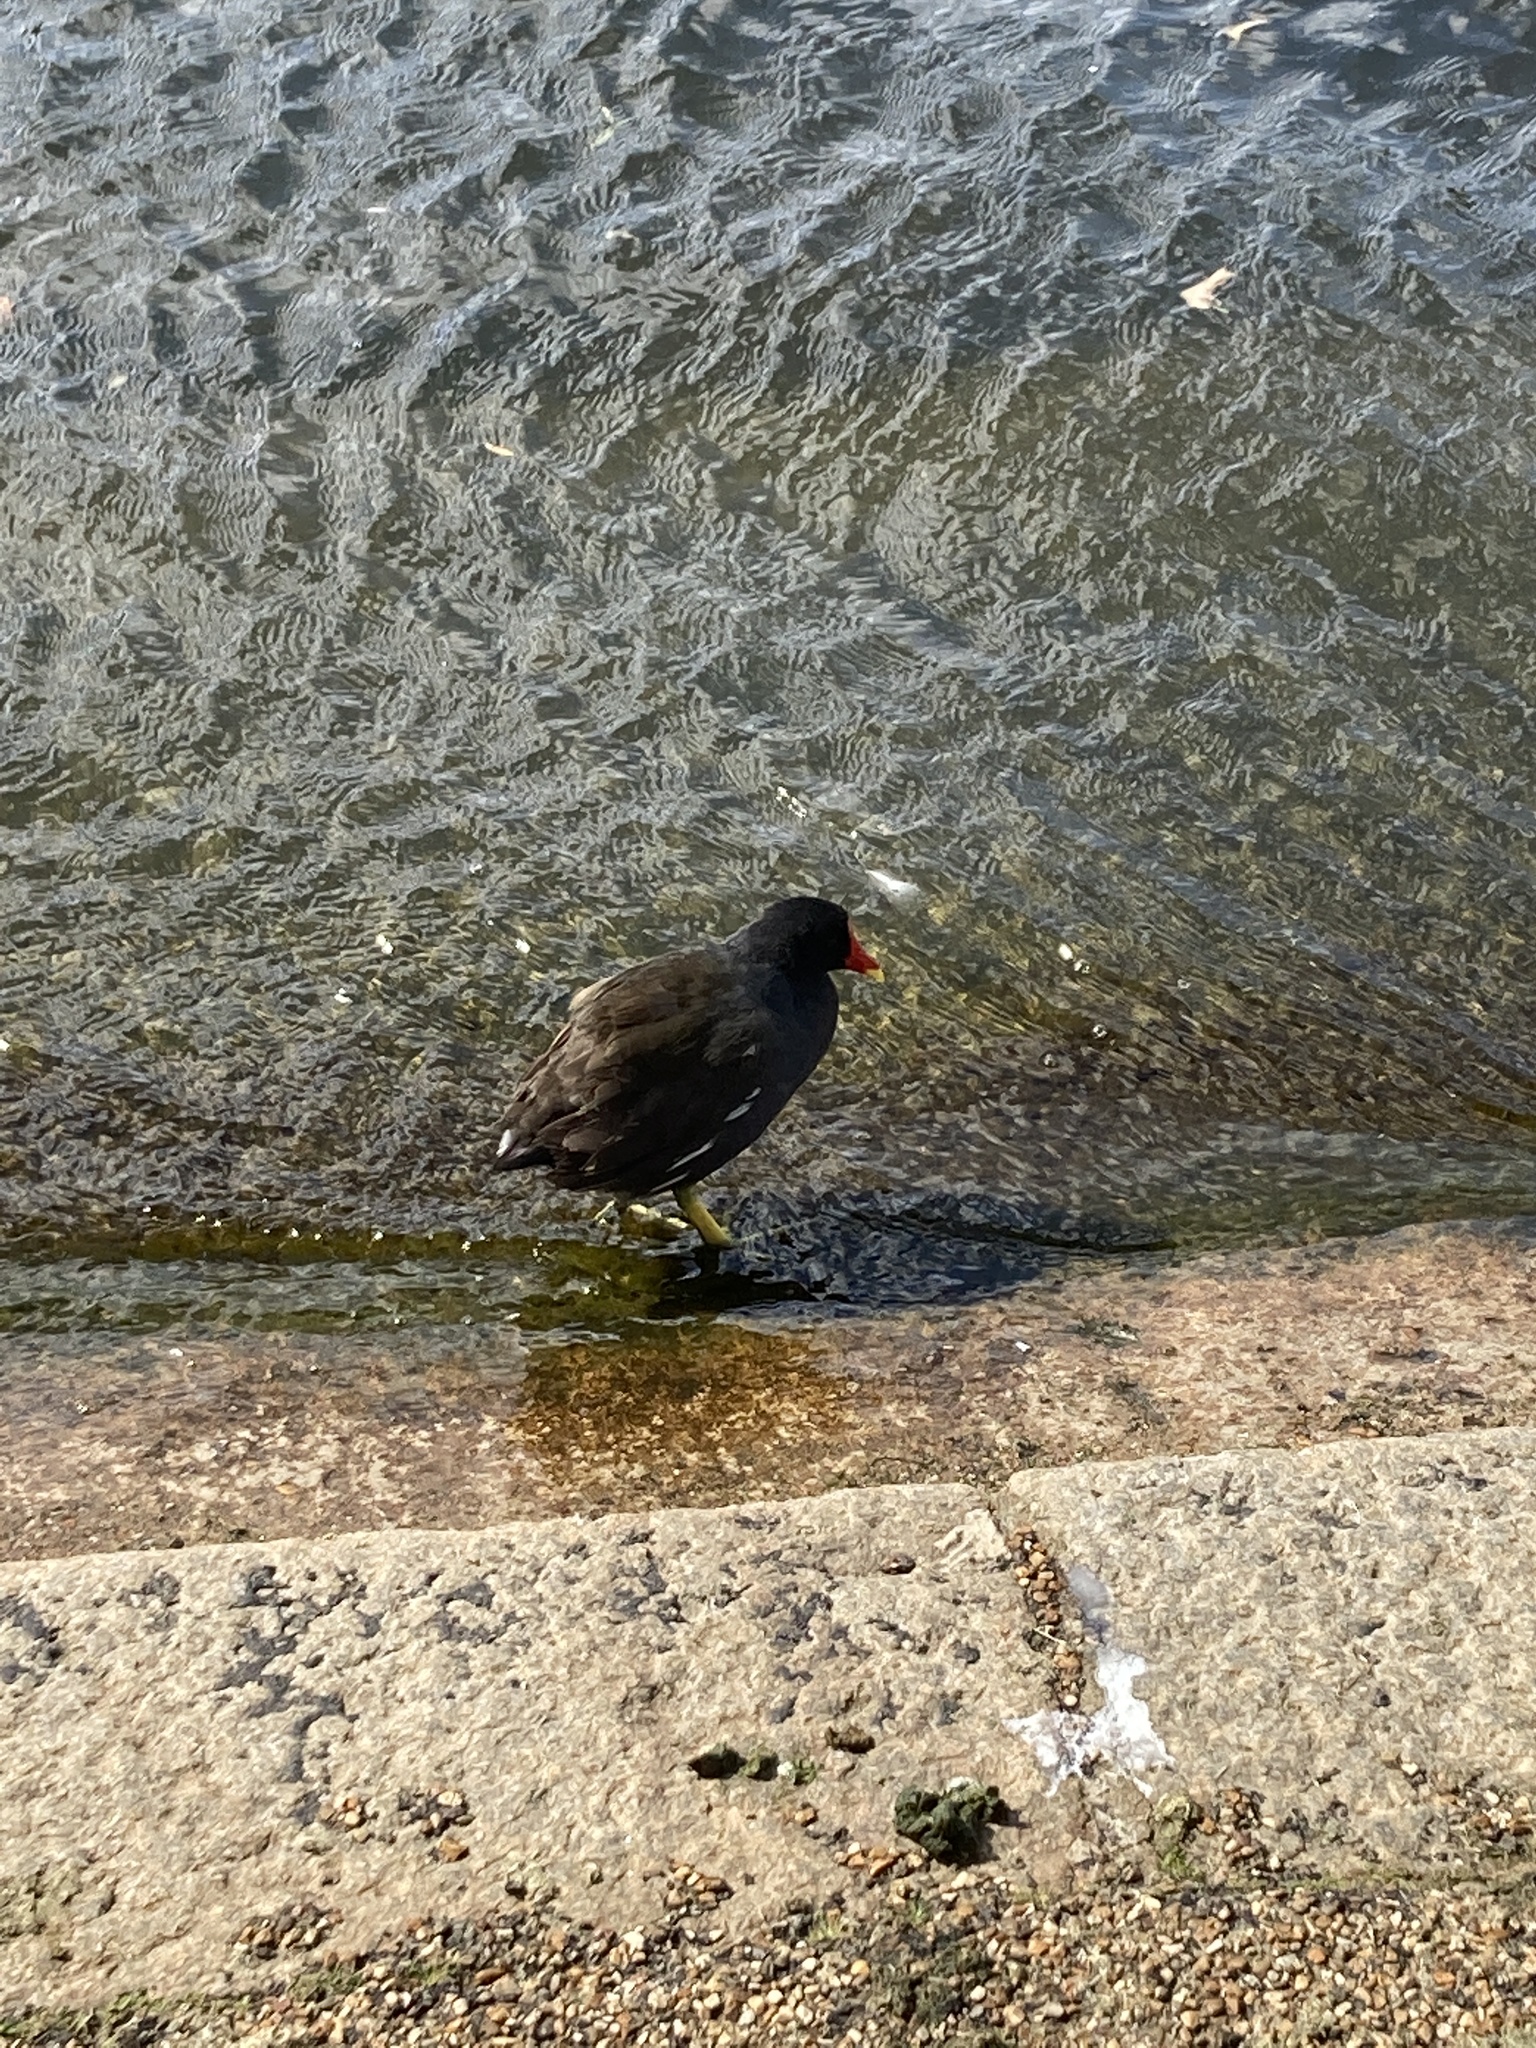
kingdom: Animalia
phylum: Chordata
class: Aves
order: Gruiformes
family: Rallidae
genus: Gallinula
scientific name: Gallinula chloropus
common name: Common moorhen
